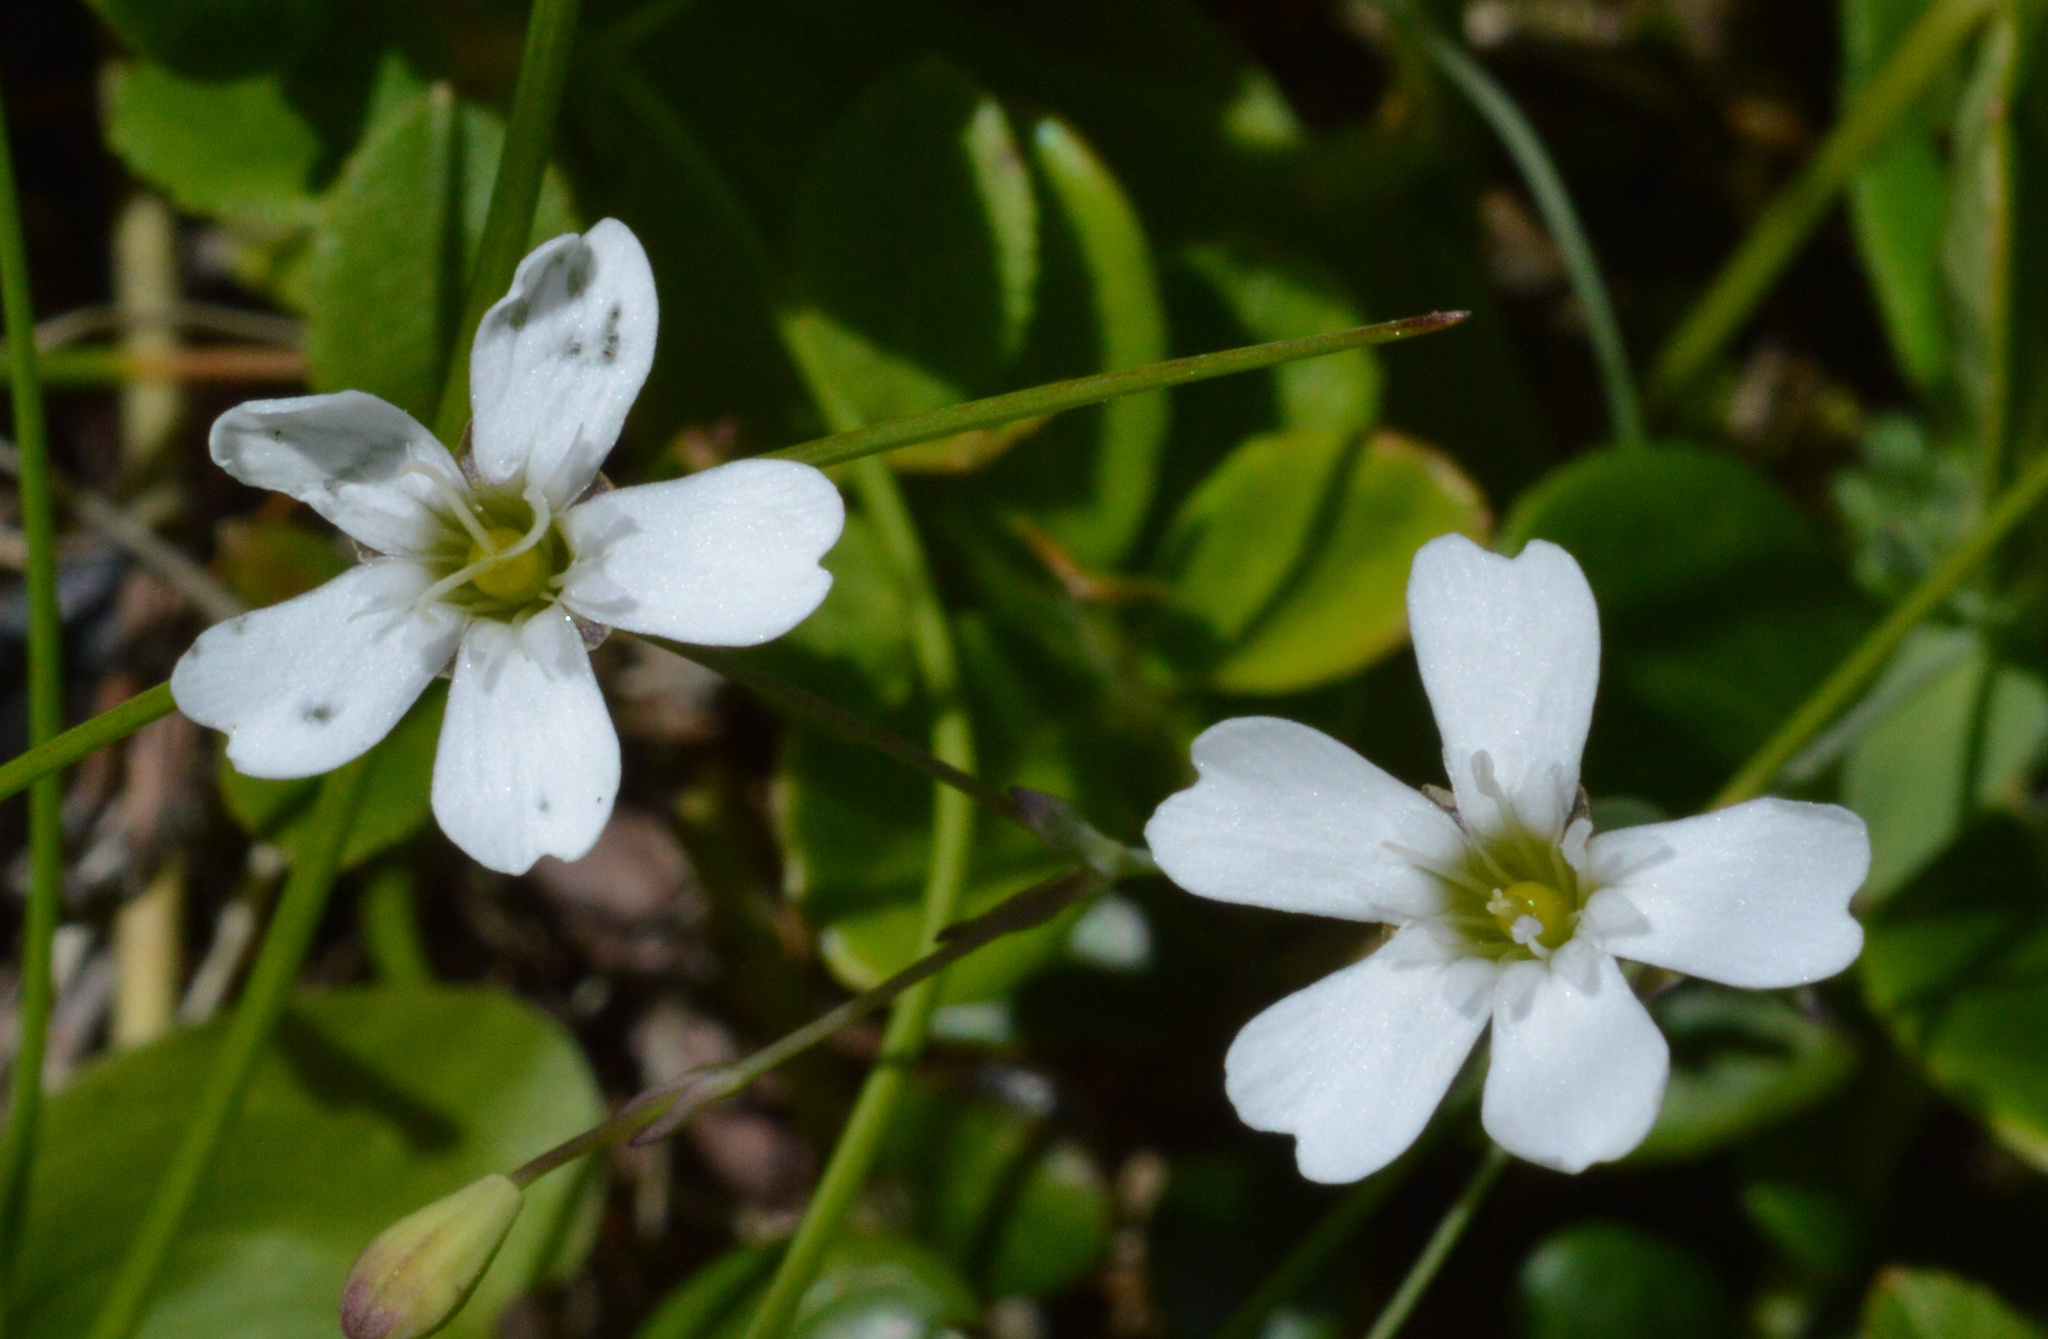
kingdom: Plantae
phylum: Tracheophyta
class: Magnoliopsida
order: Caryophyllales
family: Caryophyllaceae
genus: Atocion
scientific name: Atocion rupestre
